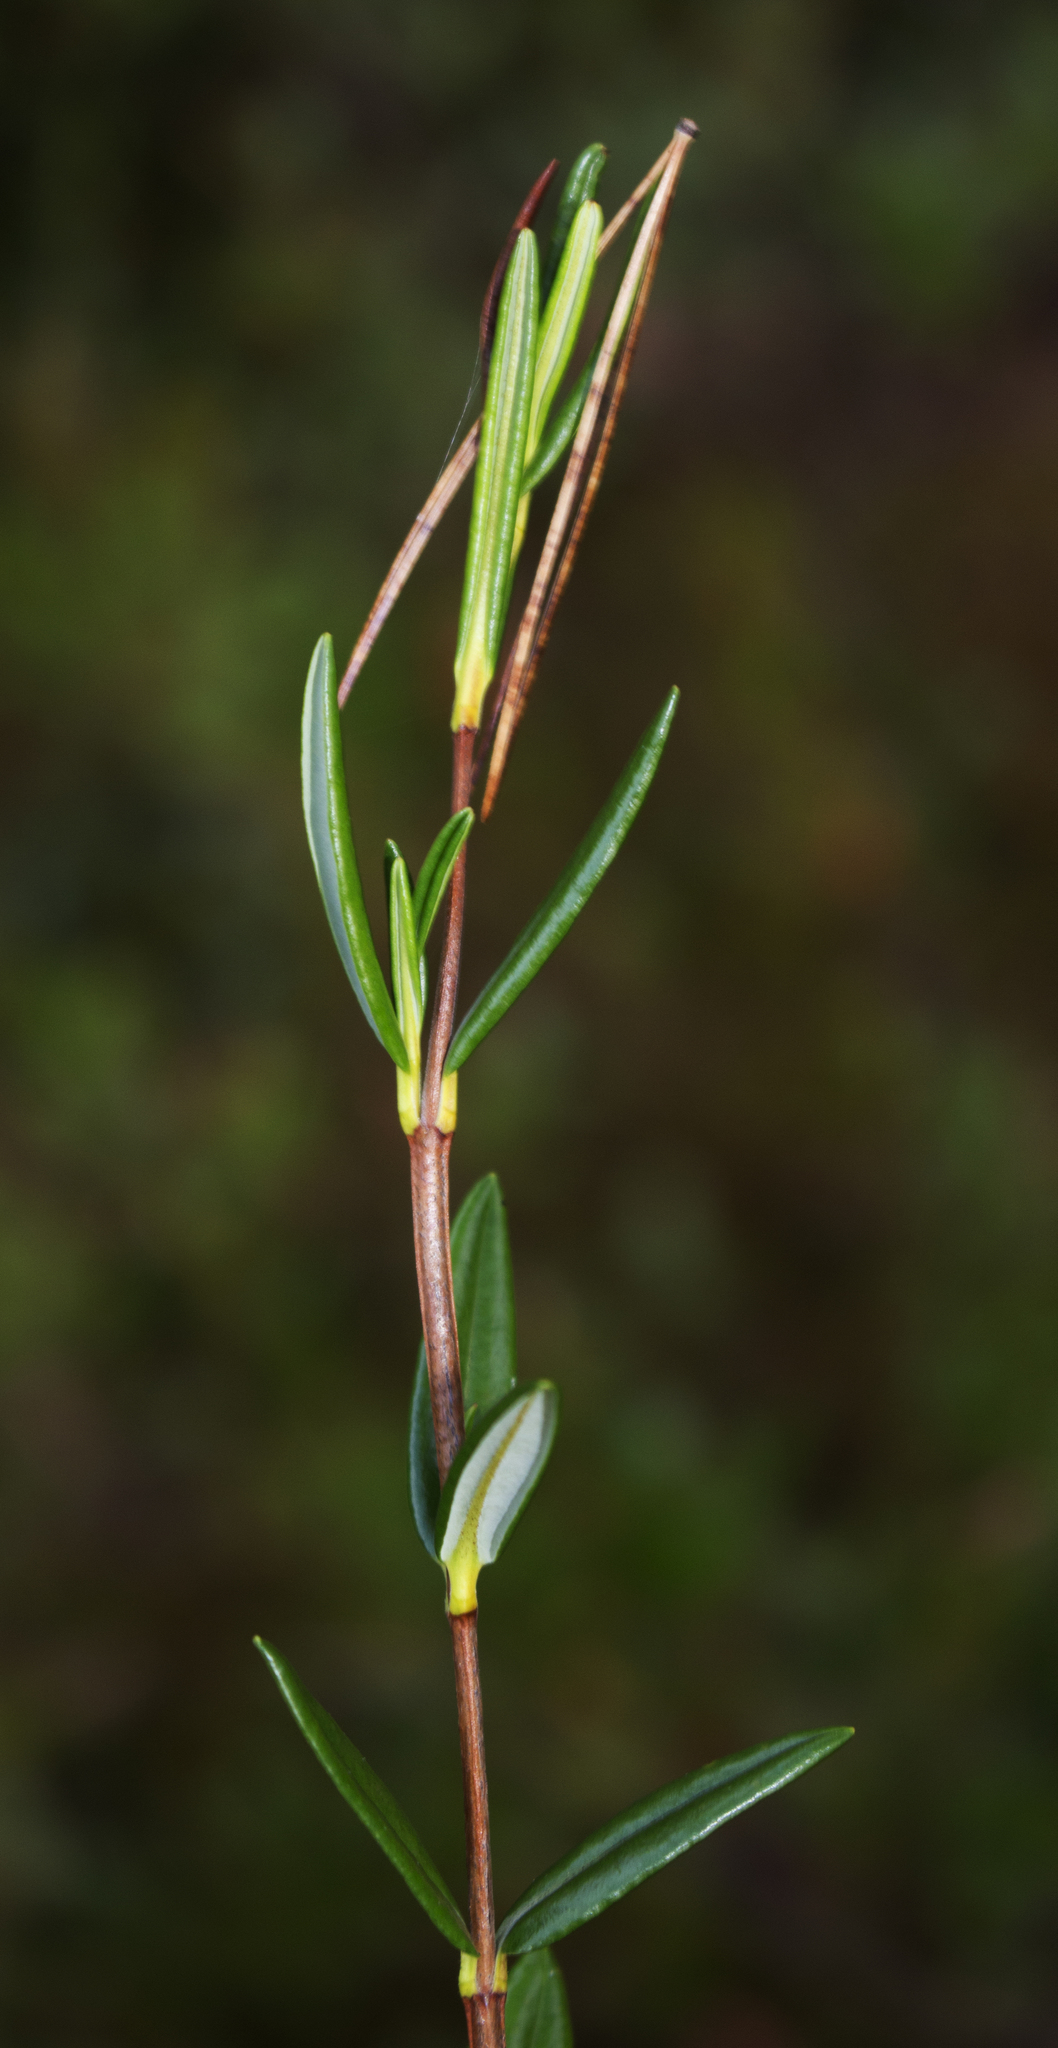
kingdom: Plantae
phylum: Tracheophyta
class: Magnoliopsida
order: Ericales
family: Ericaceae
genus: Kalmia
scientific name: Kalmia polifolia
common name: Bog-laurel
